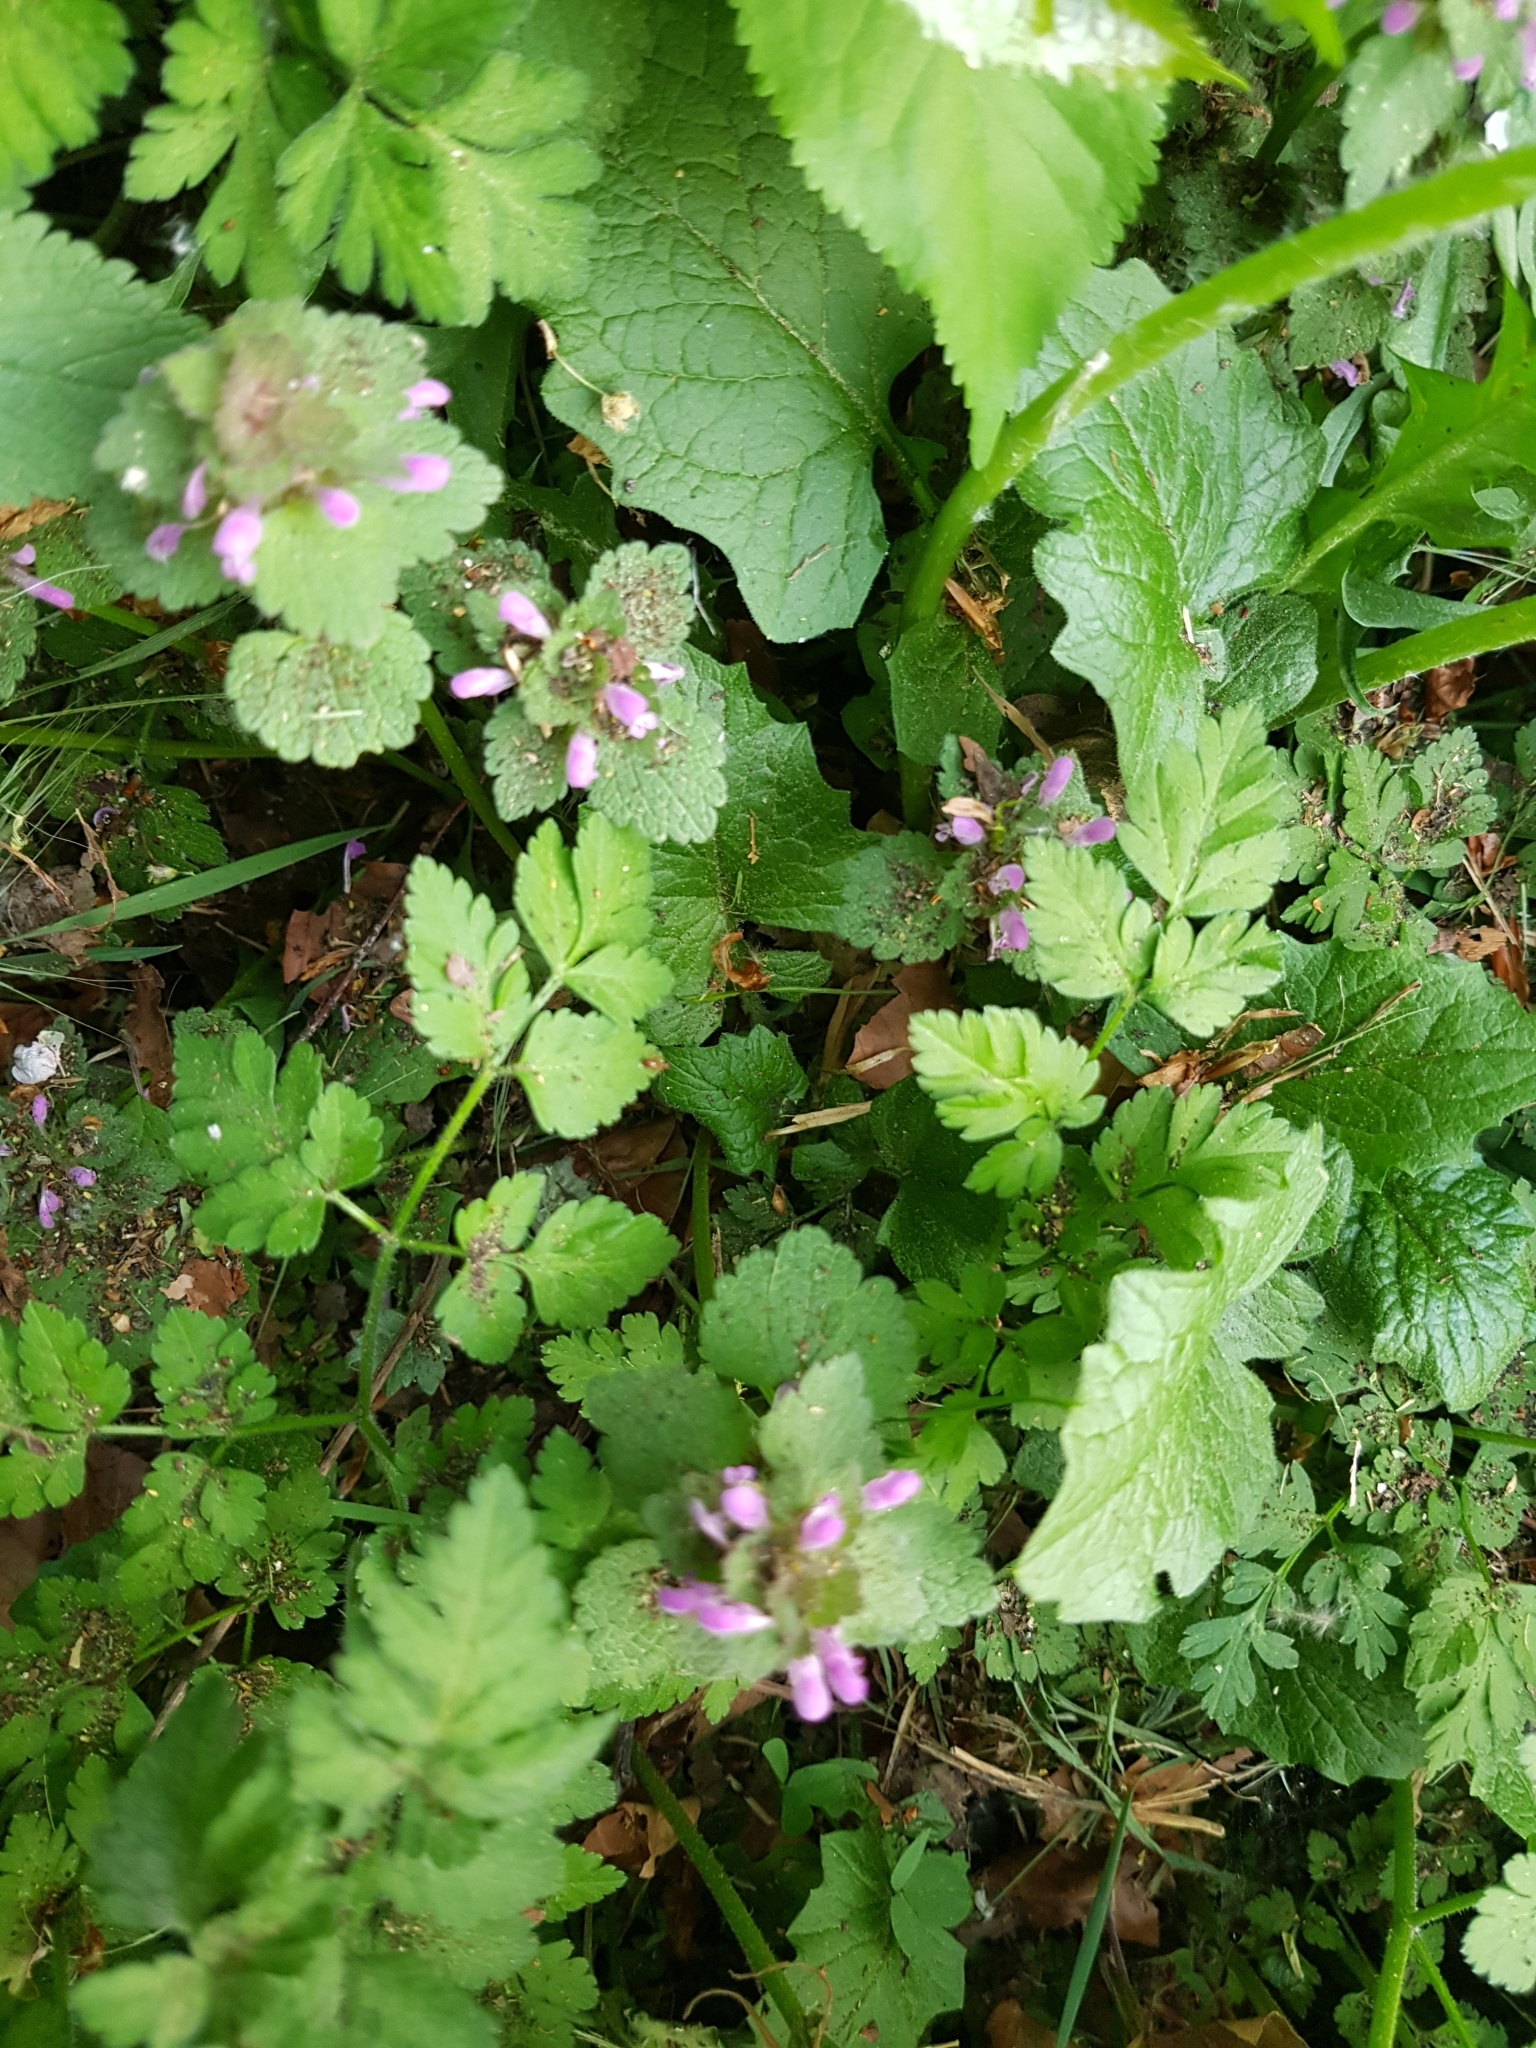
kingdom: Plantae
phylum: Tracheophyta
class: Magnoliopsida
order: Lamiales
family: Lamiaceae
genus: Lamium
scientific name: Lamium purpureum
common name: Red dead-nettle
